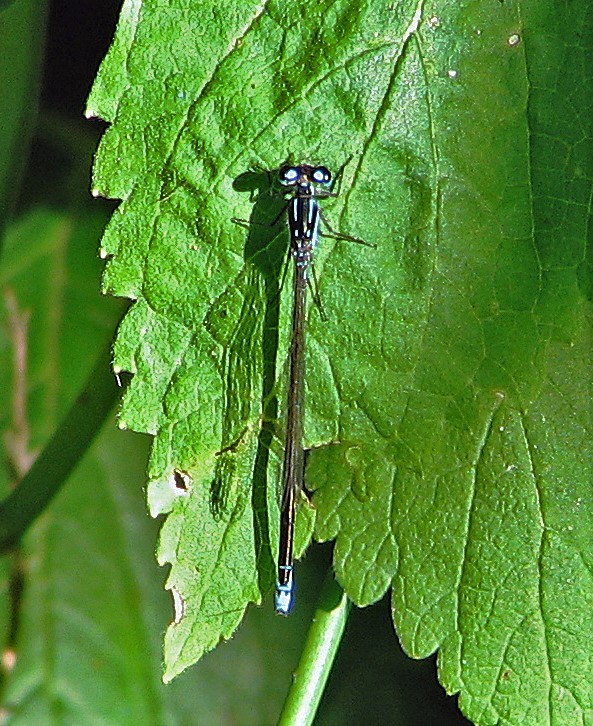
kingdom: Animalia
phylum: Arthropoda
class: Insecta
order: Odonata
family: Coenagrionidae
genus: Ischnura
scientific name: Ischnura fluviatilis
